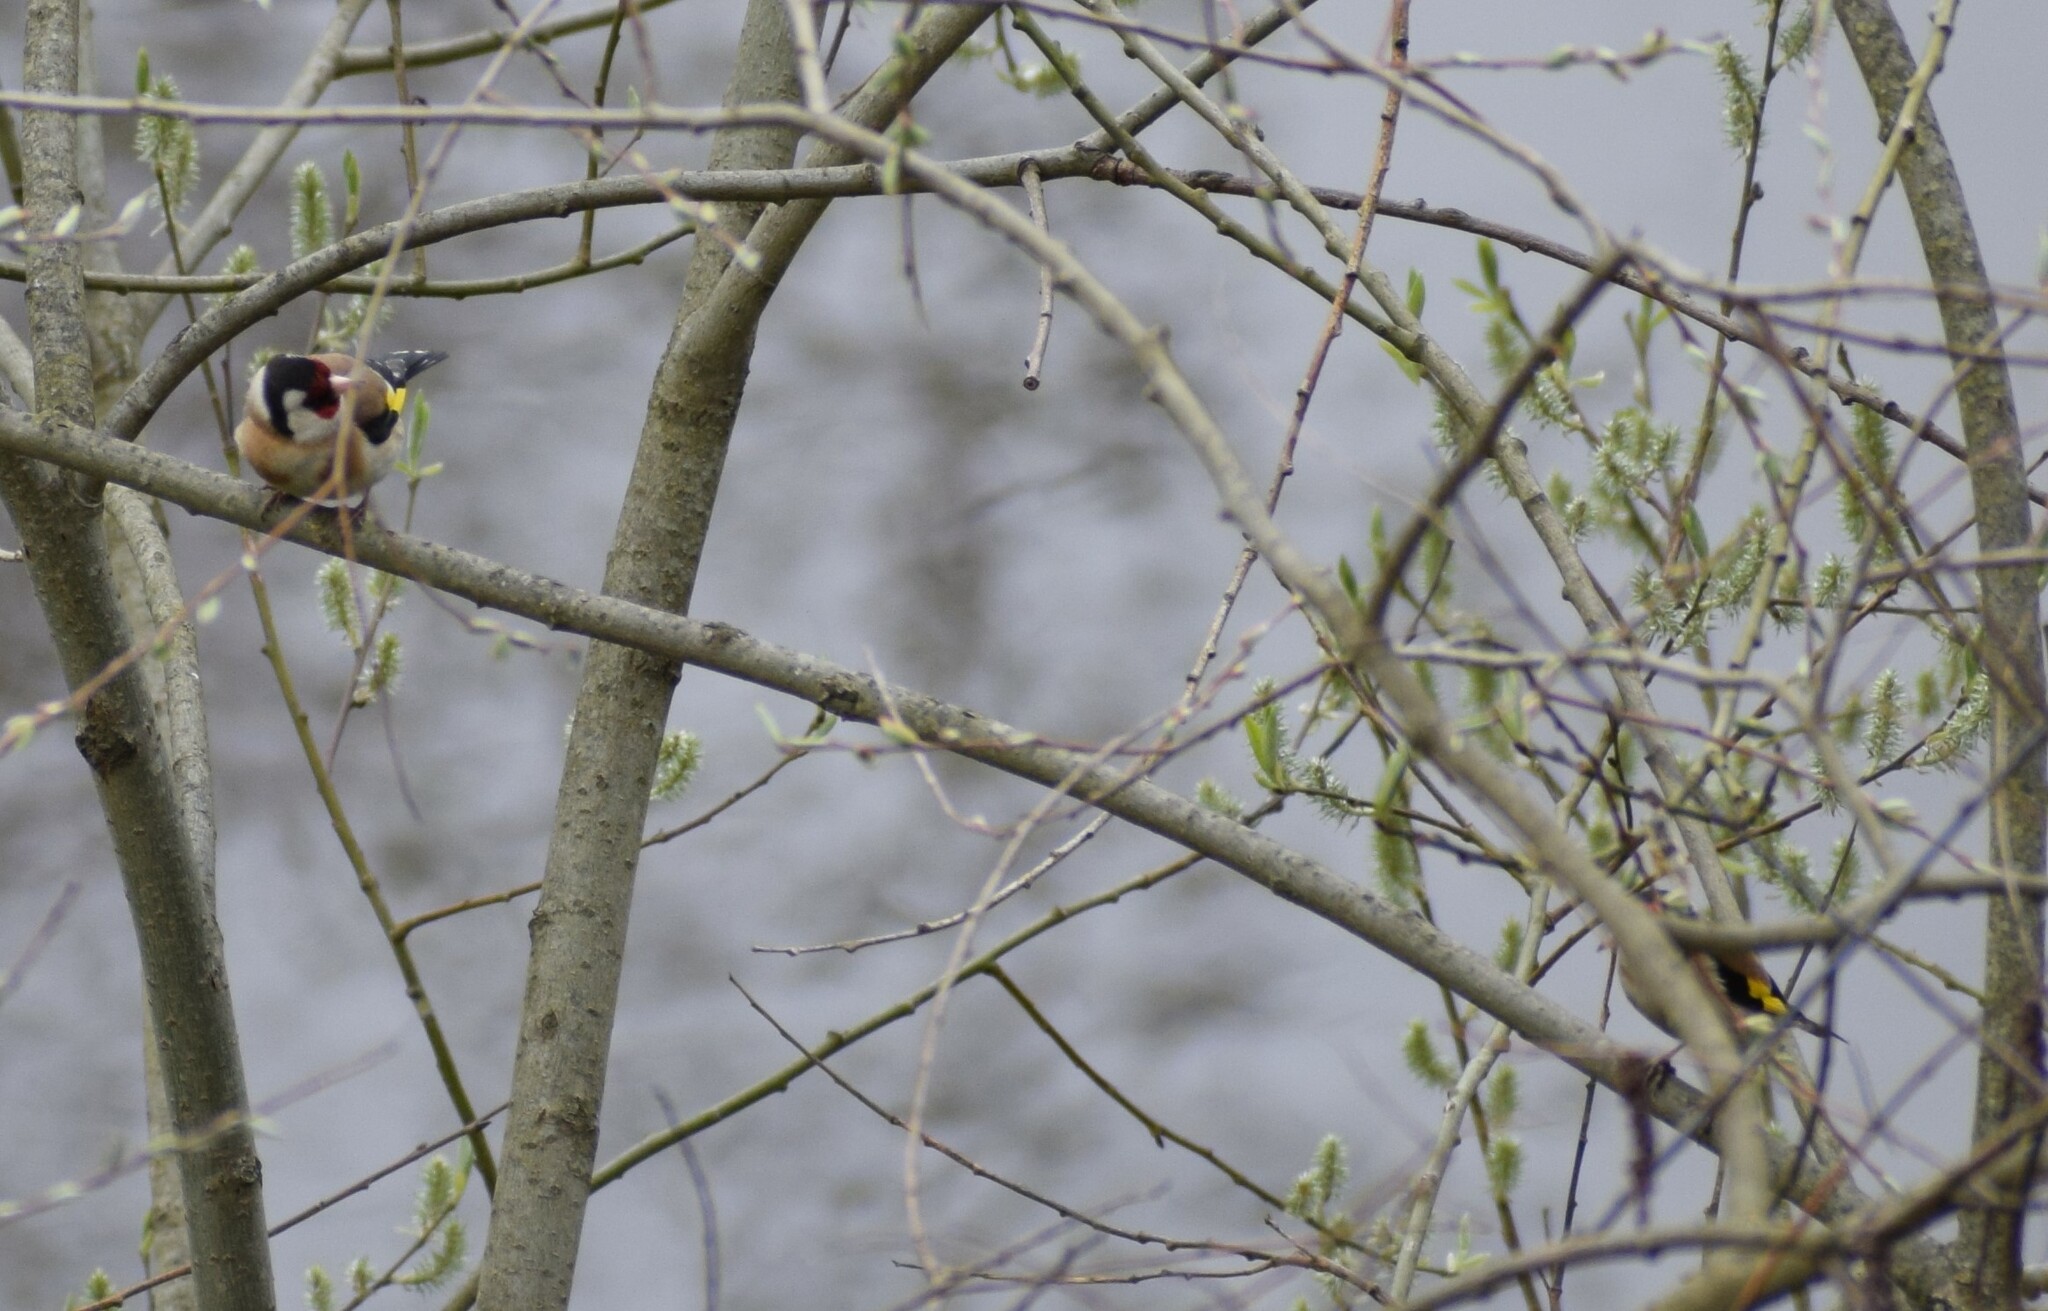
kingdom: Animalia
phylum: Chordata
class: Aves
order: Passeriformes
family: Fringillidae
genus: Carduelis
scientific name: Carduelis carduelis
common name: European goldfinch
